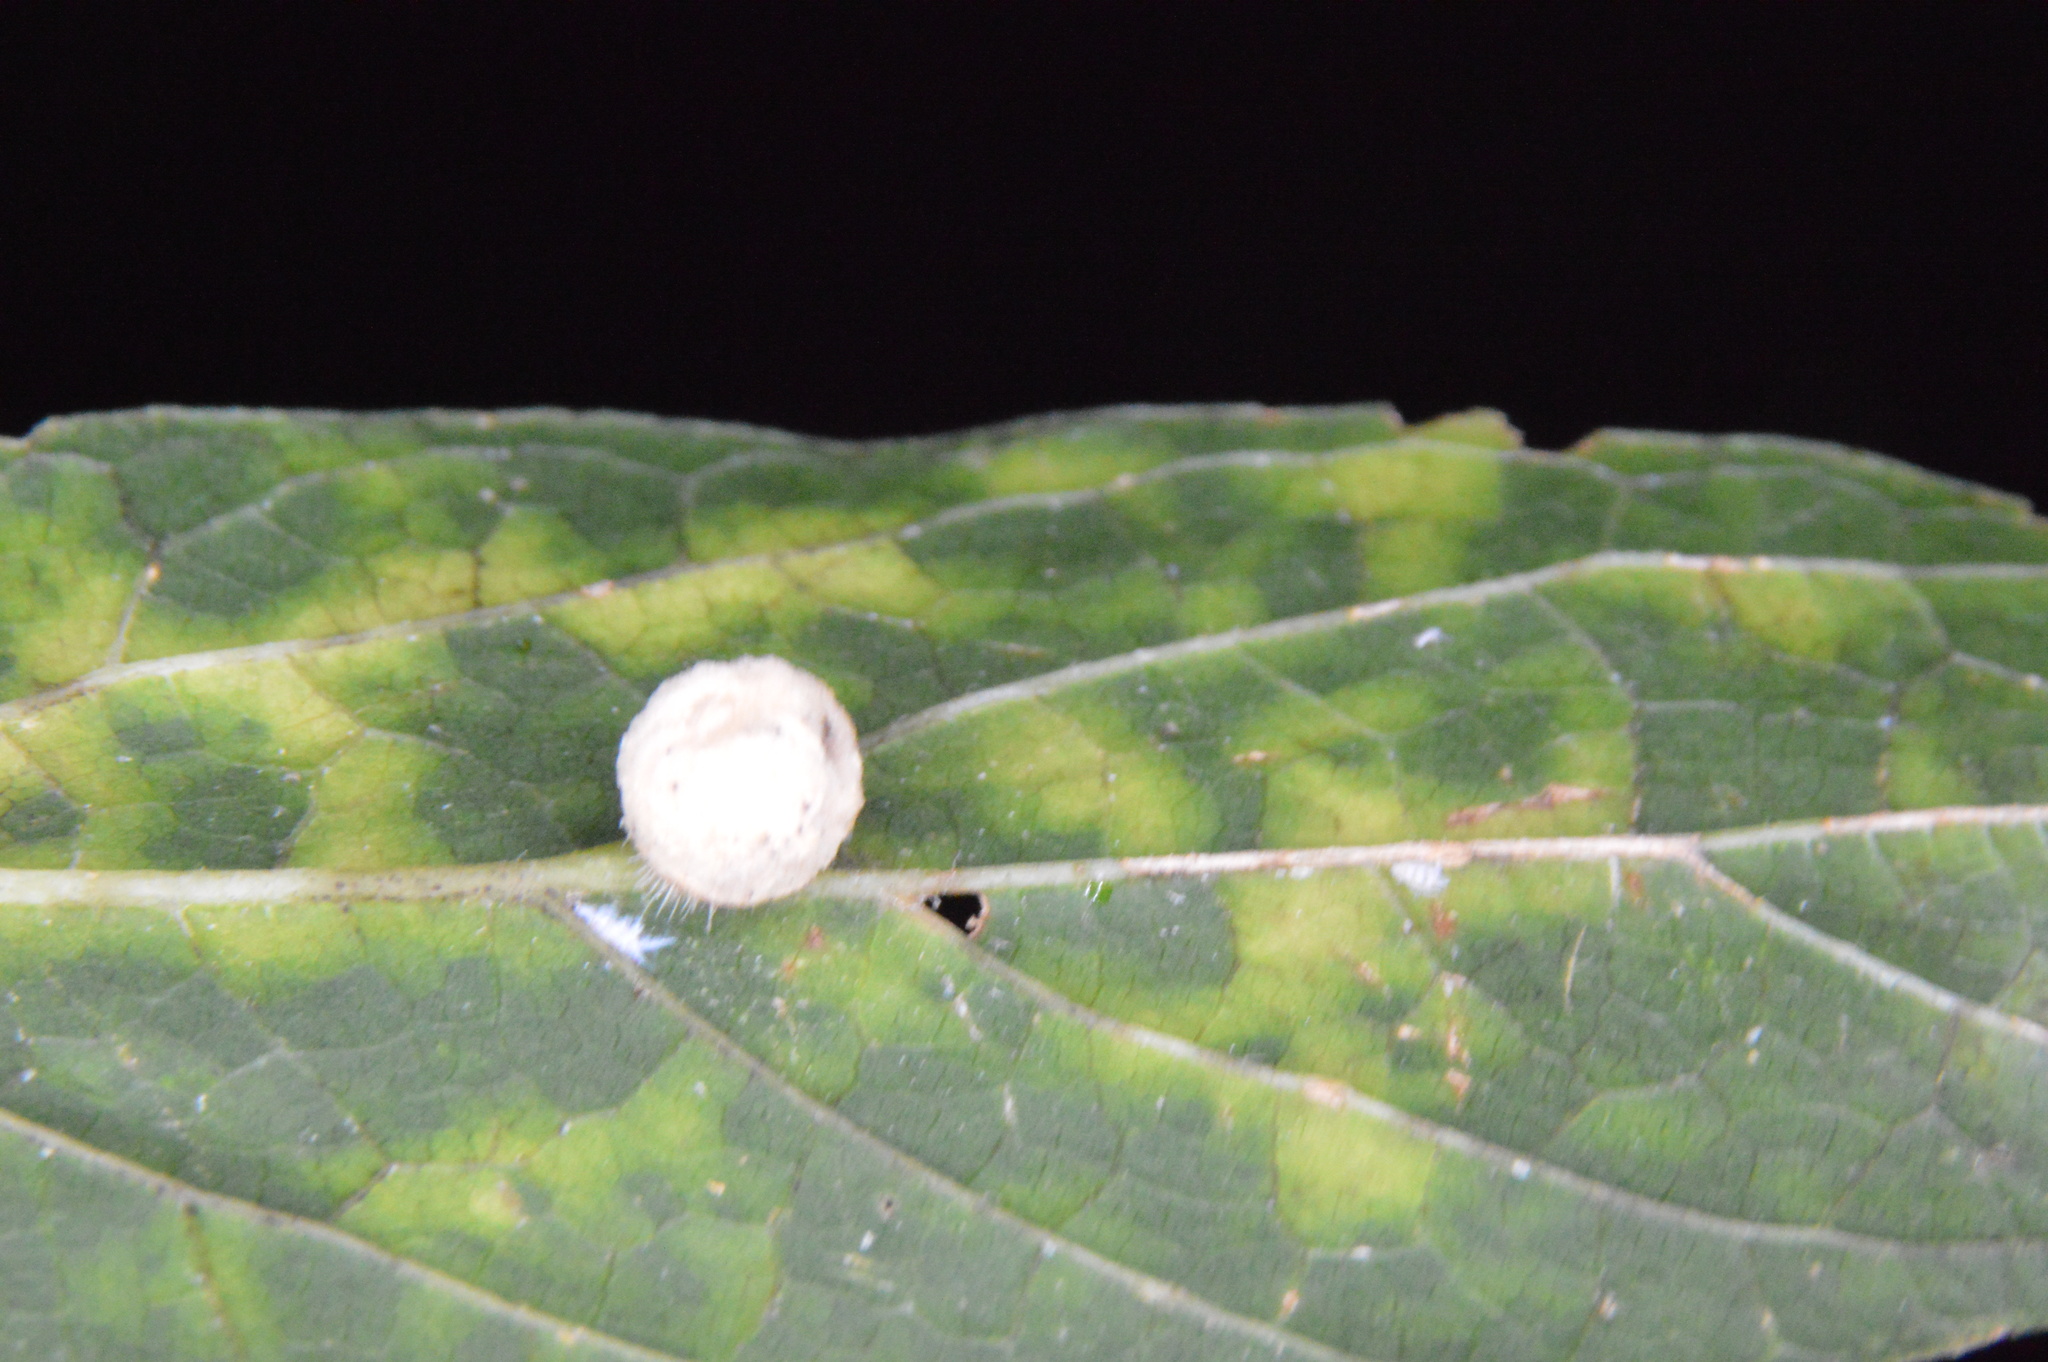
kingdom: Animalia
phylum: Arthropoda
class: Insecta
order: Diptera
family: Cecidomyiidae
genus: Celticecis
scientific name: Celticecis pubescens
